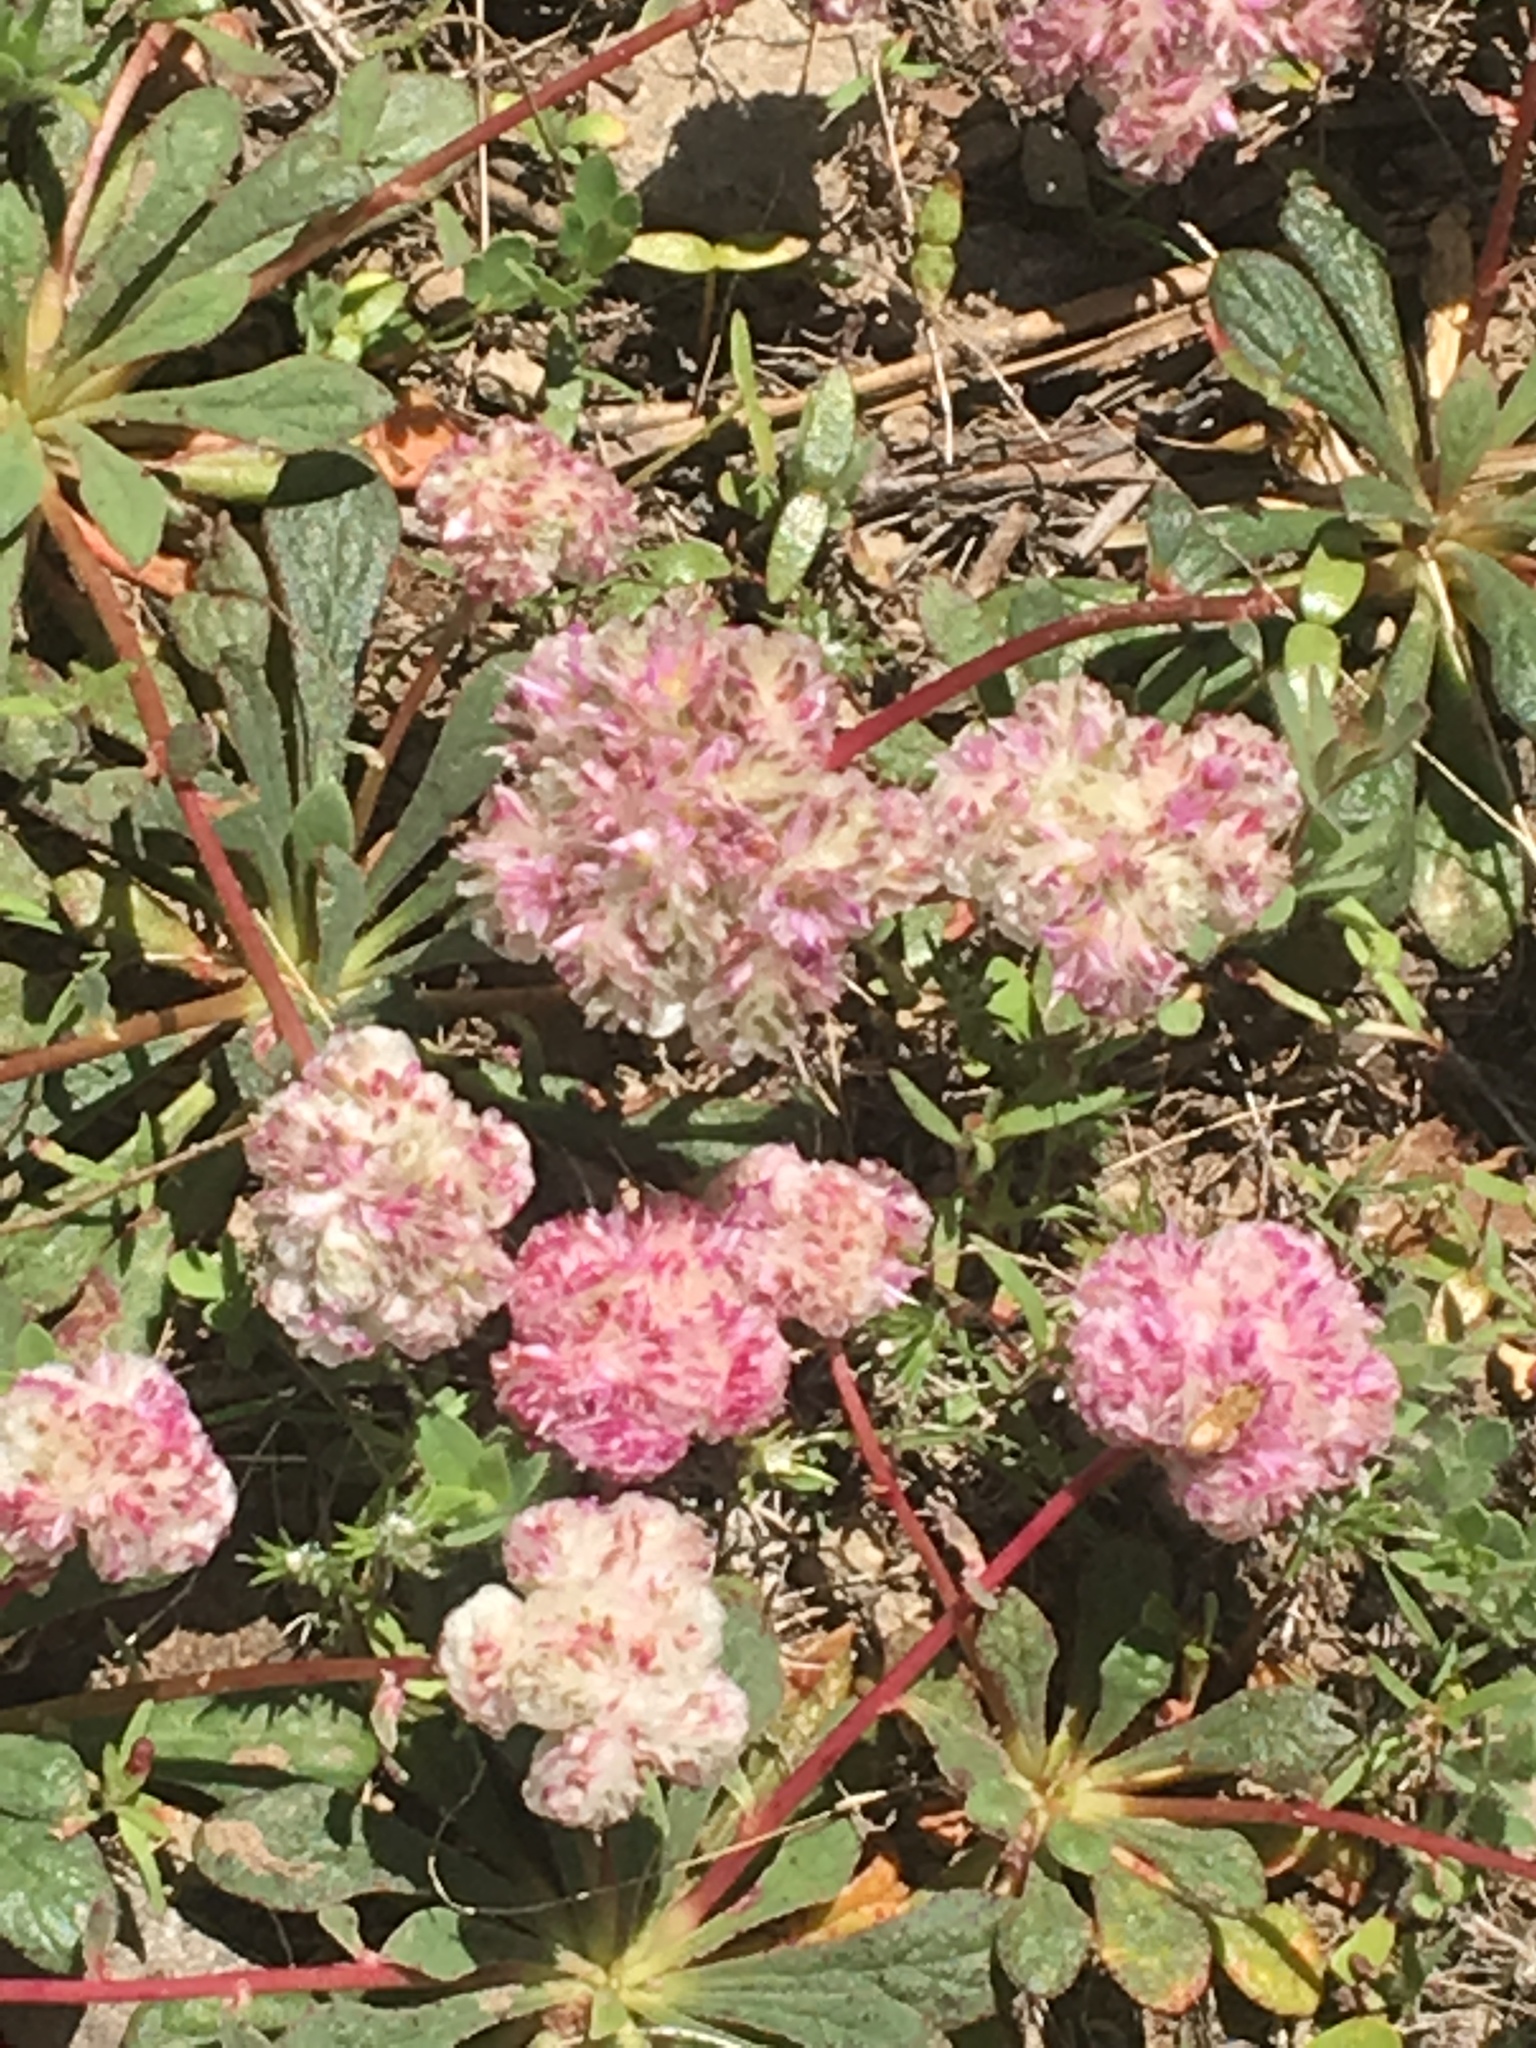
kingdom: Plantae
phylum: Tracheophyta
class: Magnoliopsida
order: Caryophyllales
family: Montiaceae
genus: Calyptridium
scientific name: Calyptridium monospermum
